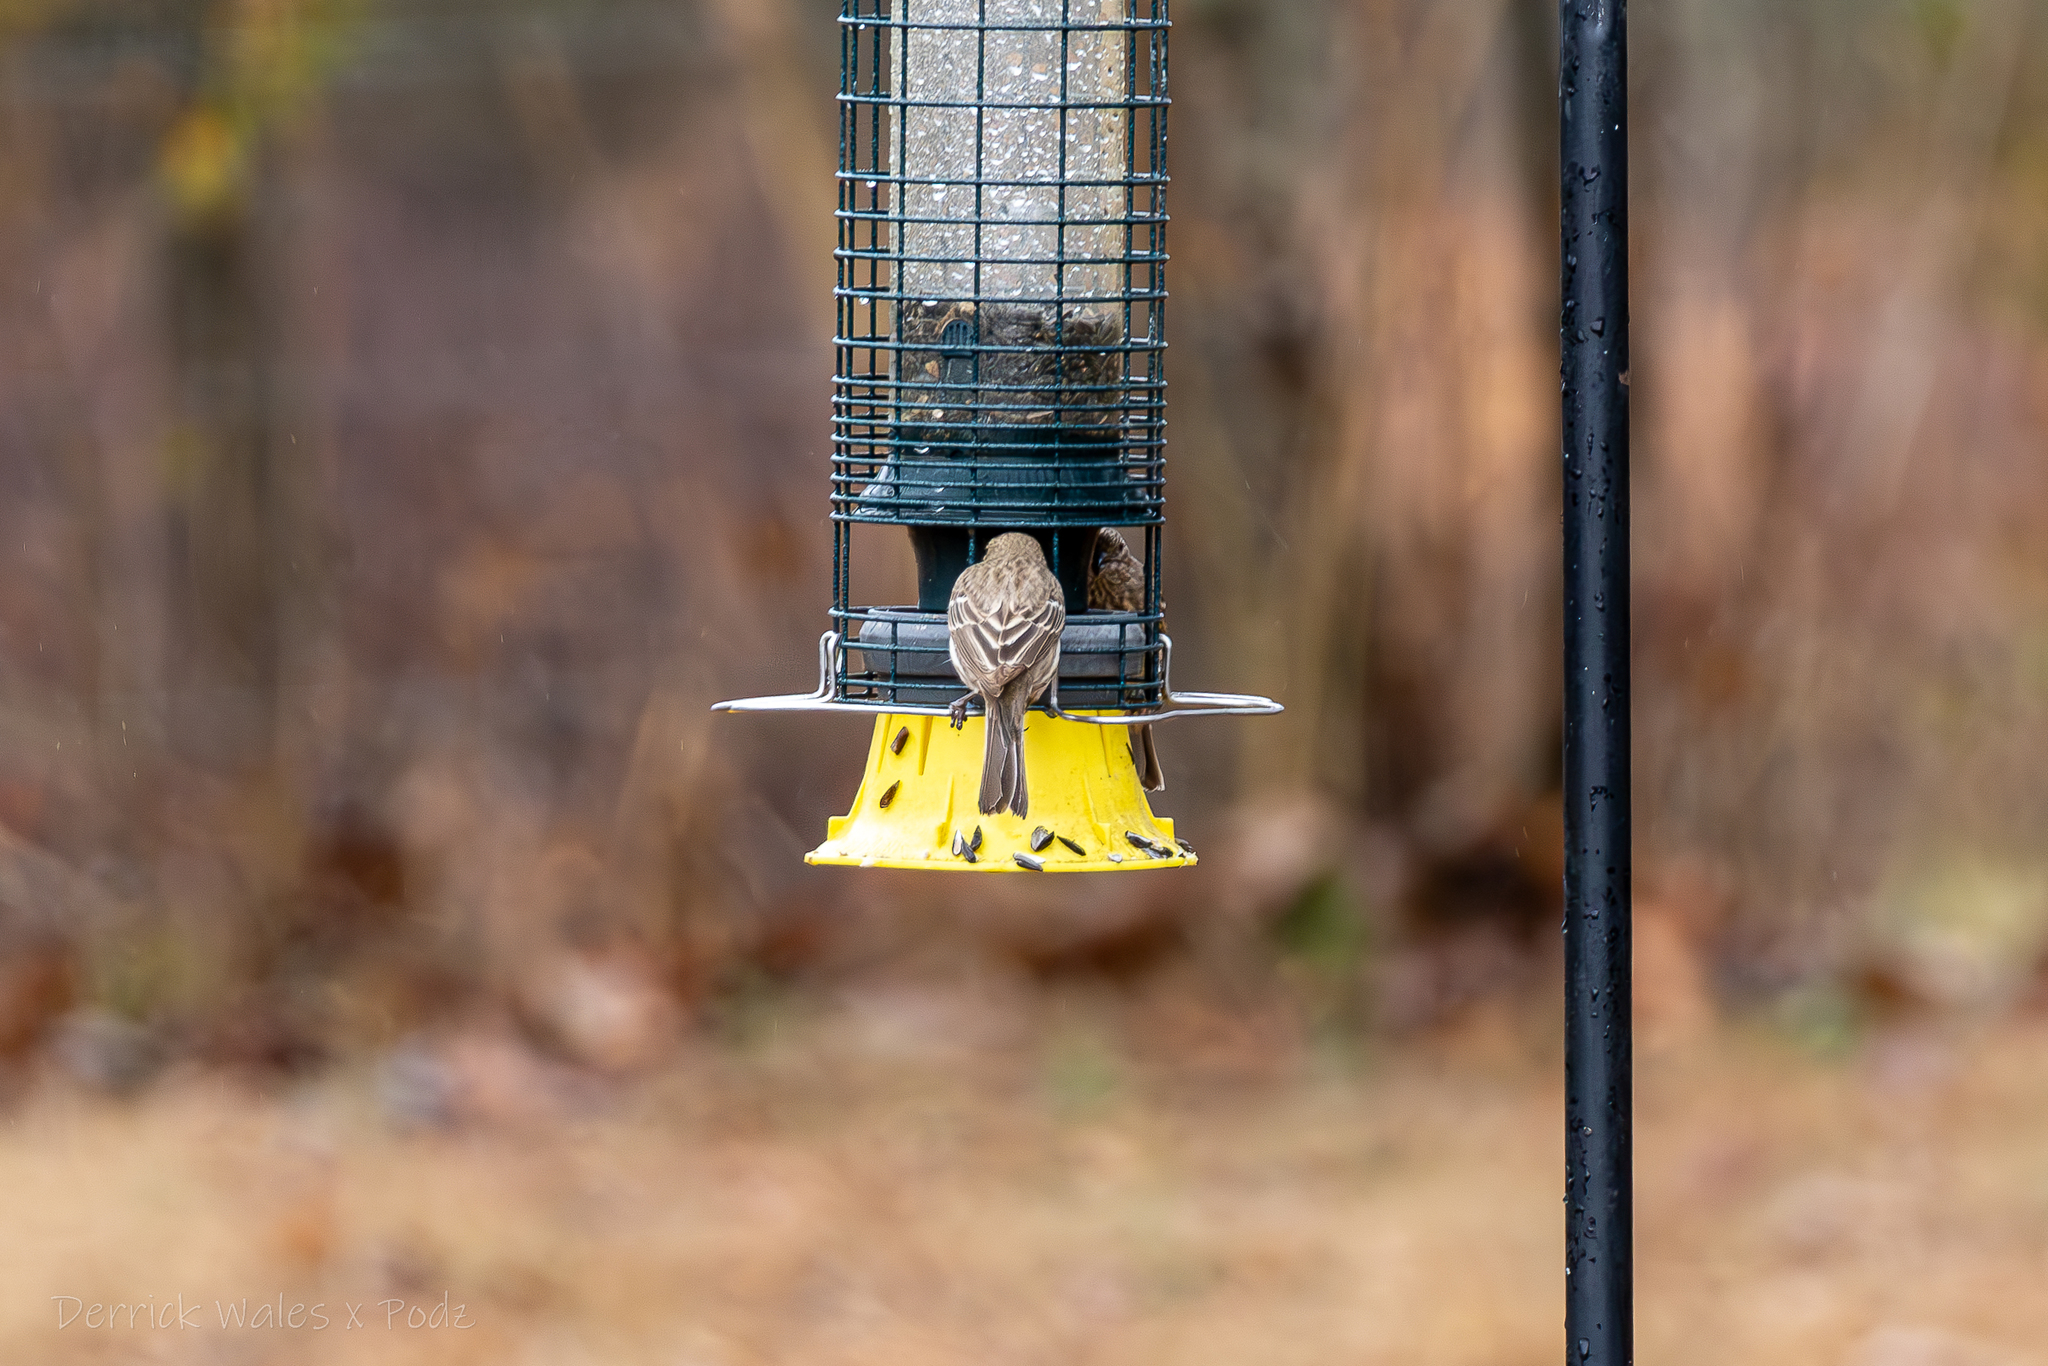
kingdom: Animalia
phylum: Chordata
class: Aves
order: Passeriformes
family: Fringillidae
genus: Haemorhous
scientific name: Haemorhous mexicanus
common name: House finch
